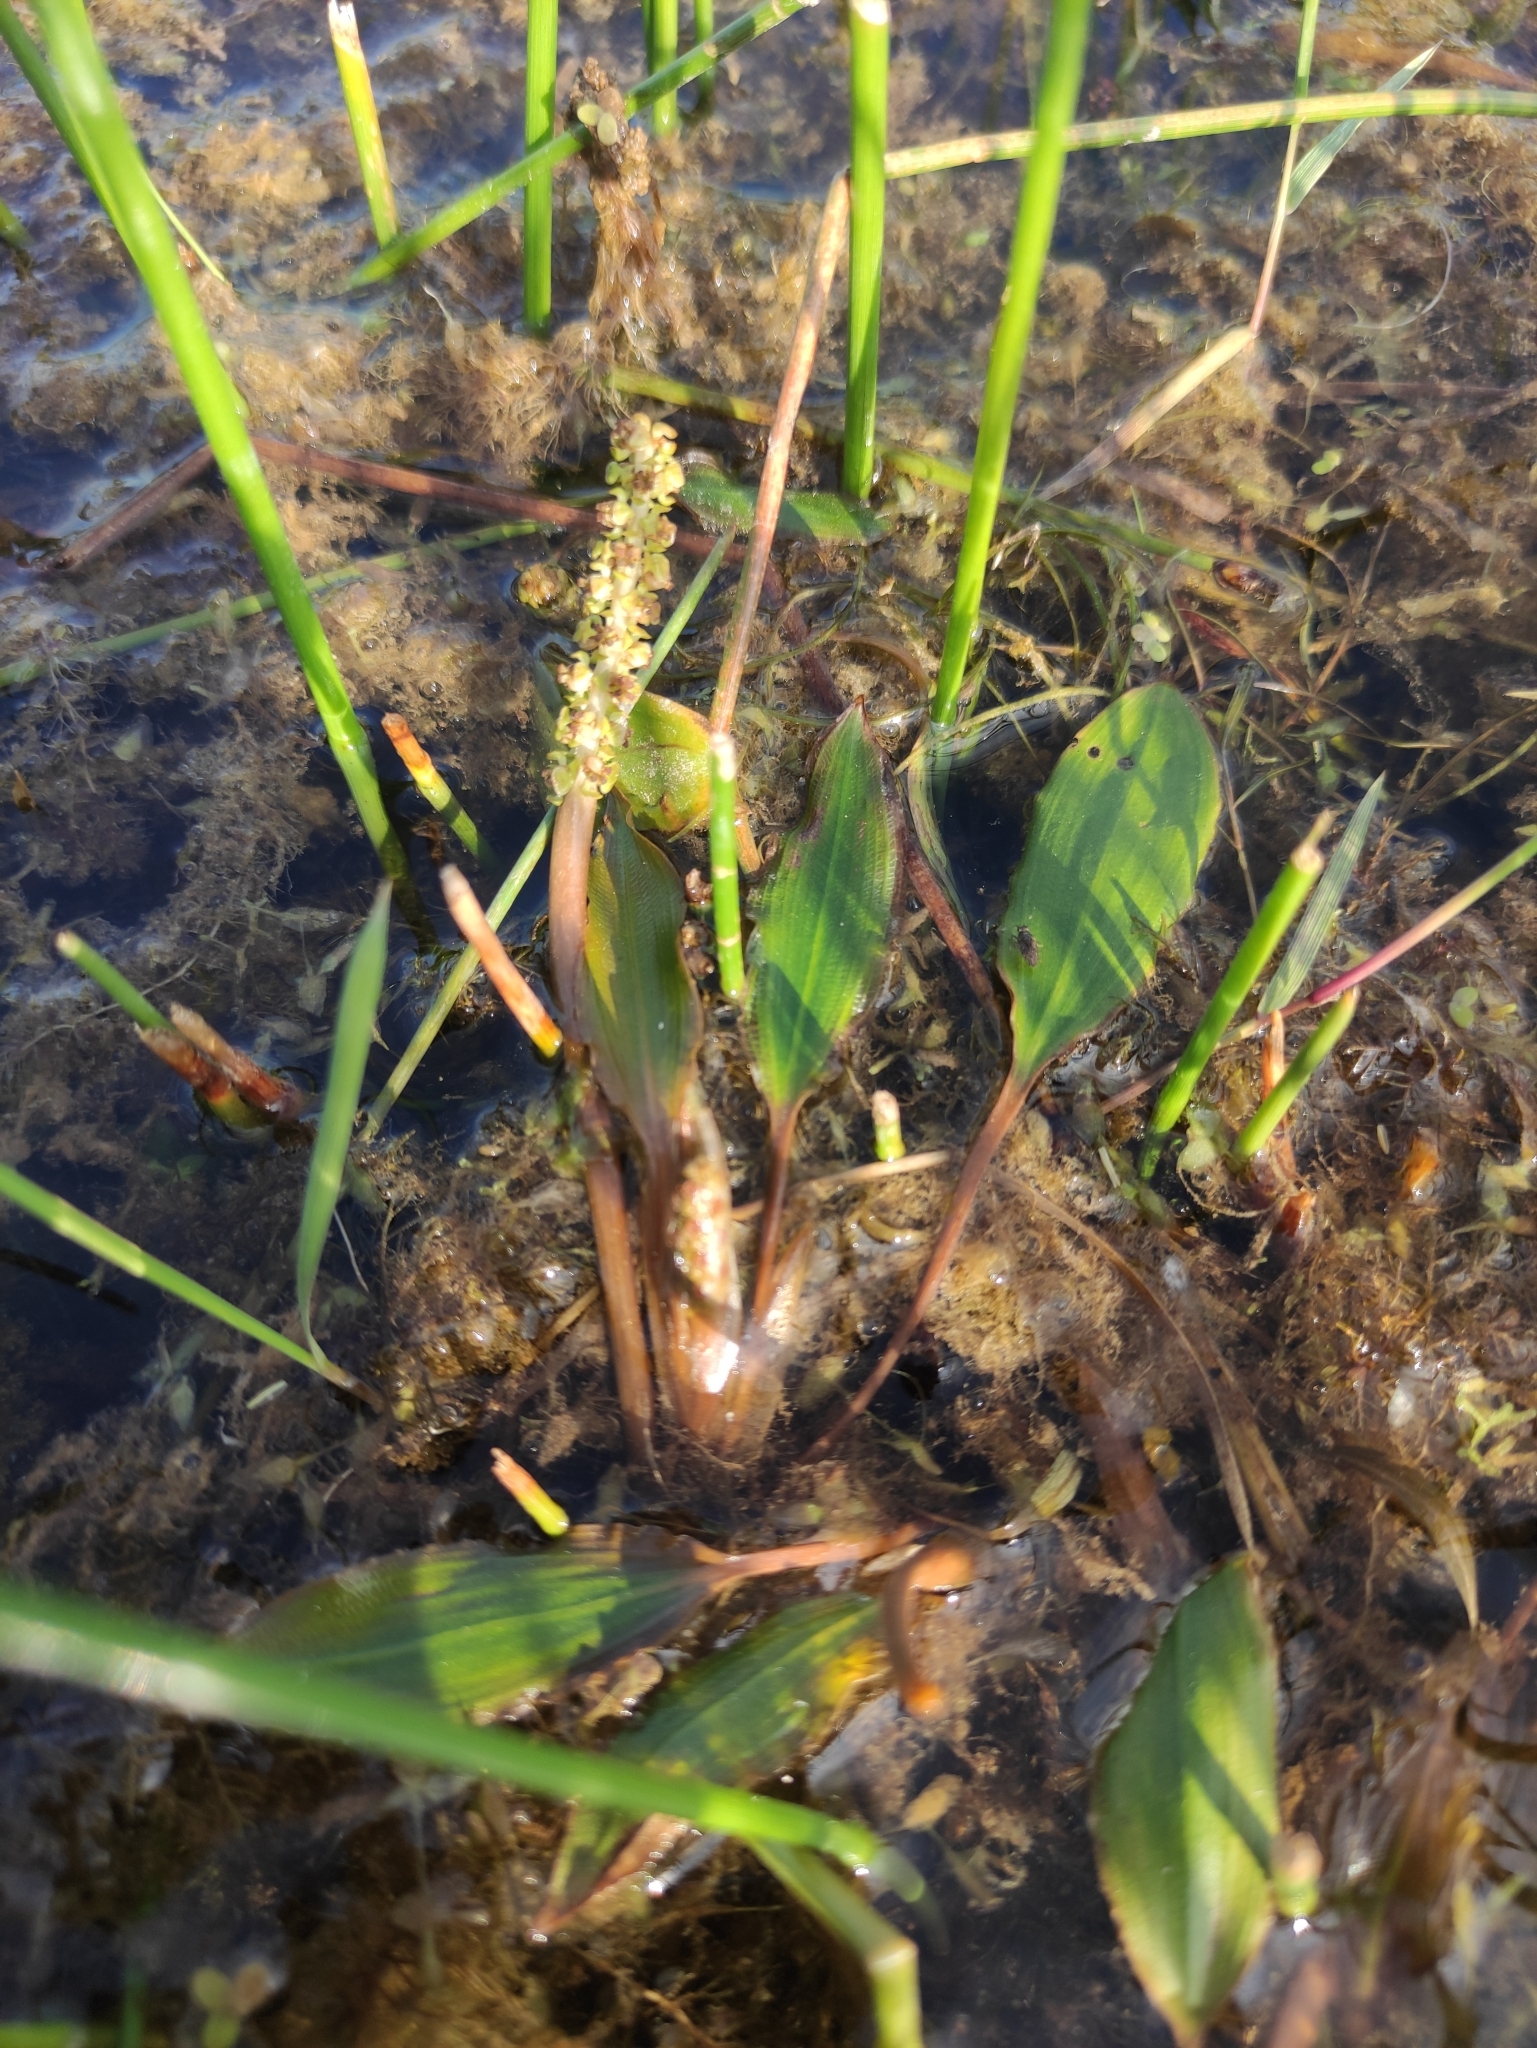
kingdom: Plantae
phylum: Tracheophyta
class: Liliopsida
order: Alismatales
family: Potamogetonaceae
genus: Potamogeton
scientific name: Potamogeton gramineus
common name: Various-leaved pondweed
